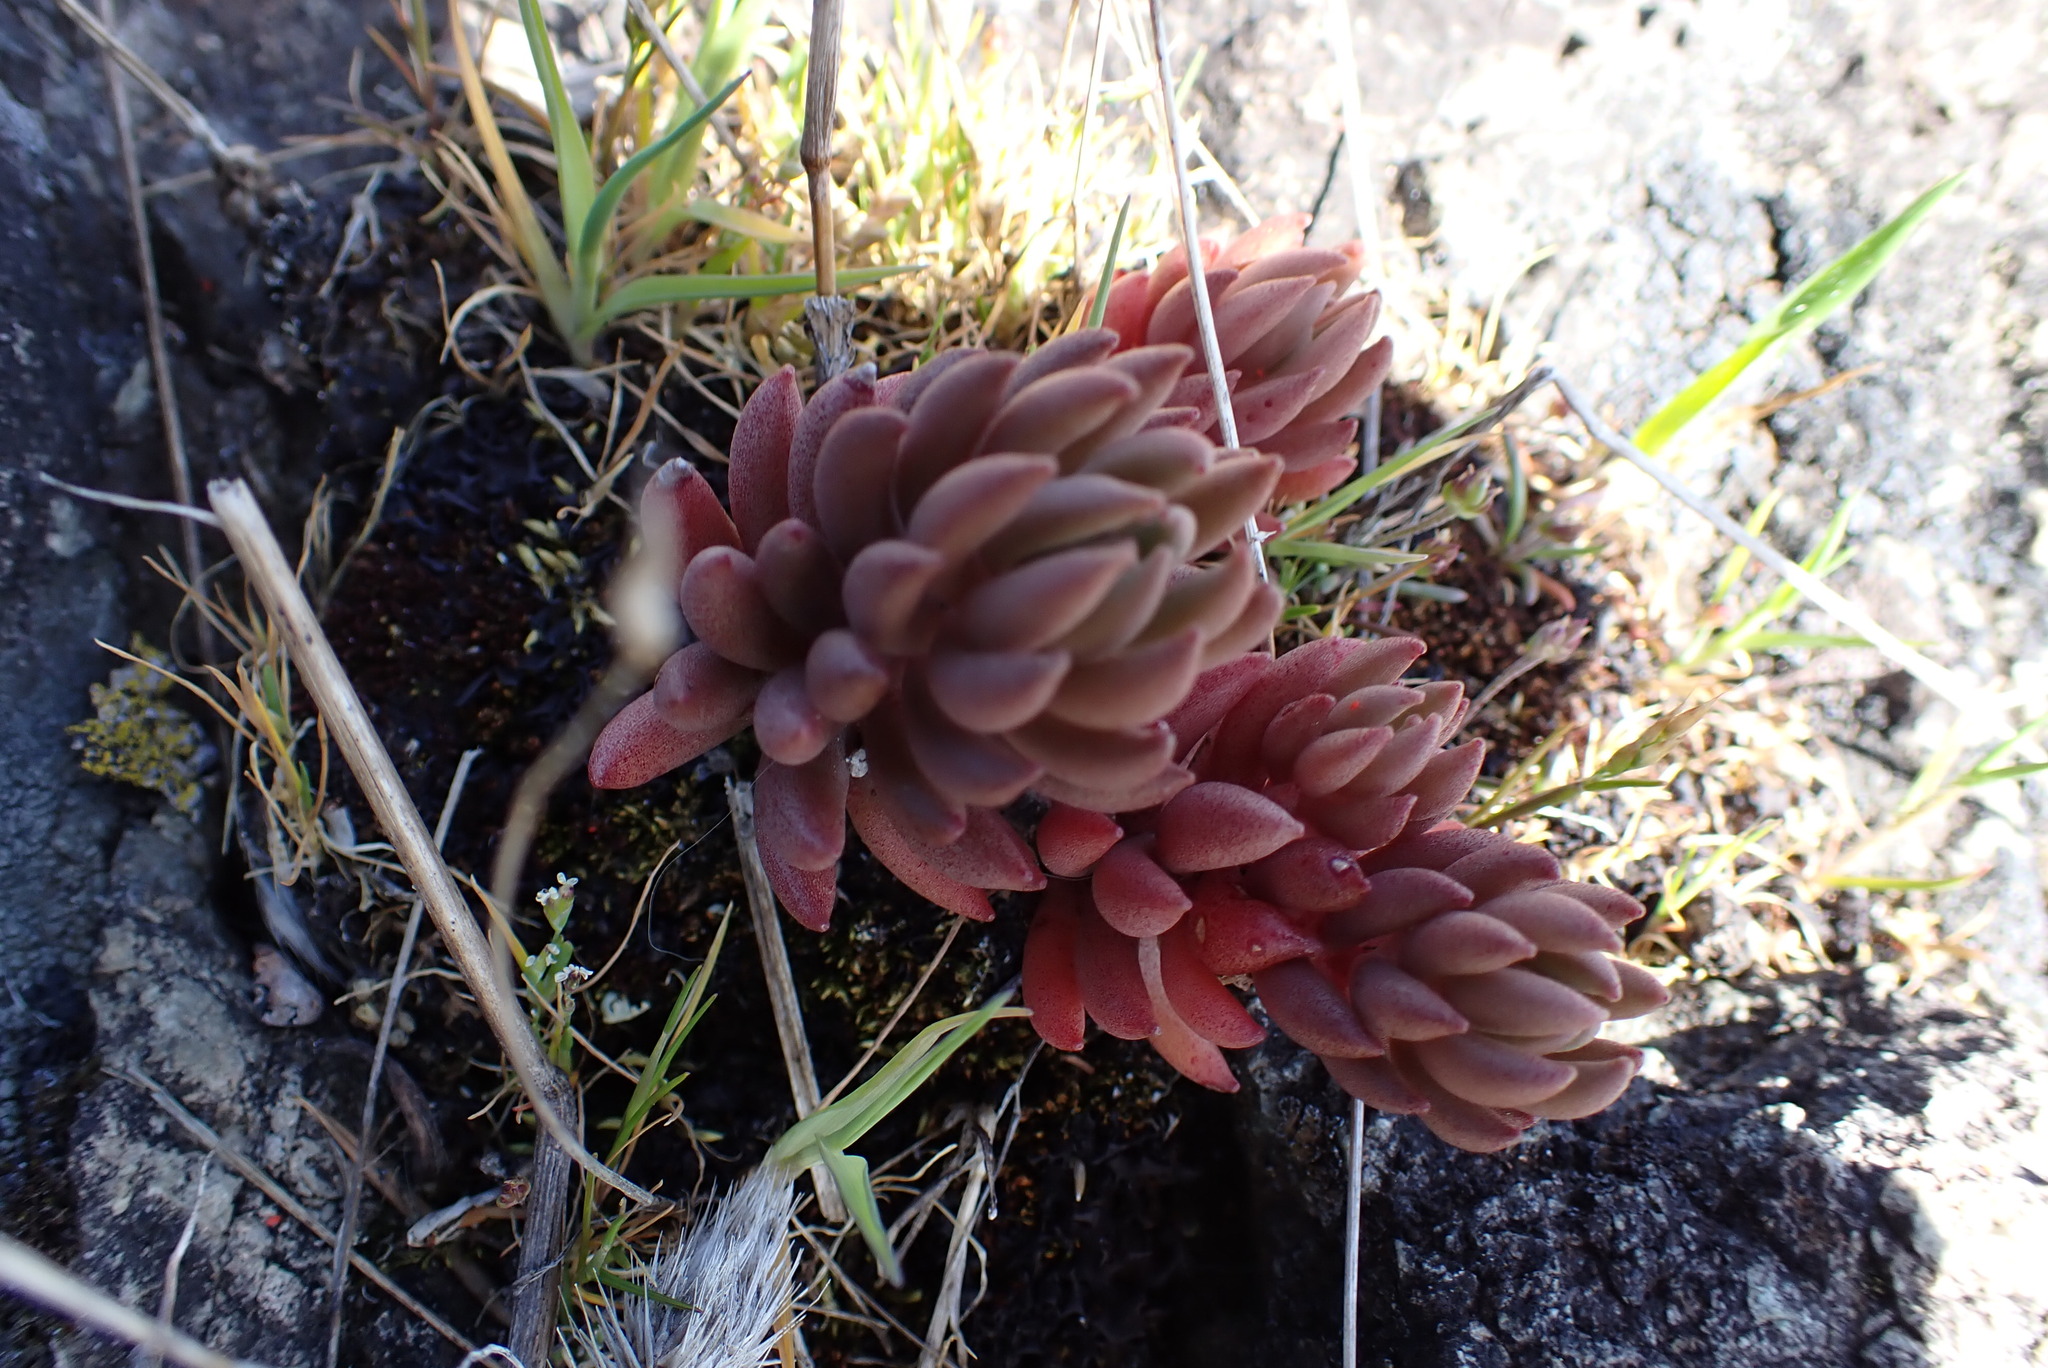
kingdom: Plantae
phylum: Tracheophyta
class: Magnoliopsida
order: Saxifragales
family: Crassulaceae
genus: Sedum
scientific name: Sedum lanceolatum
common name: Common stonecrop
